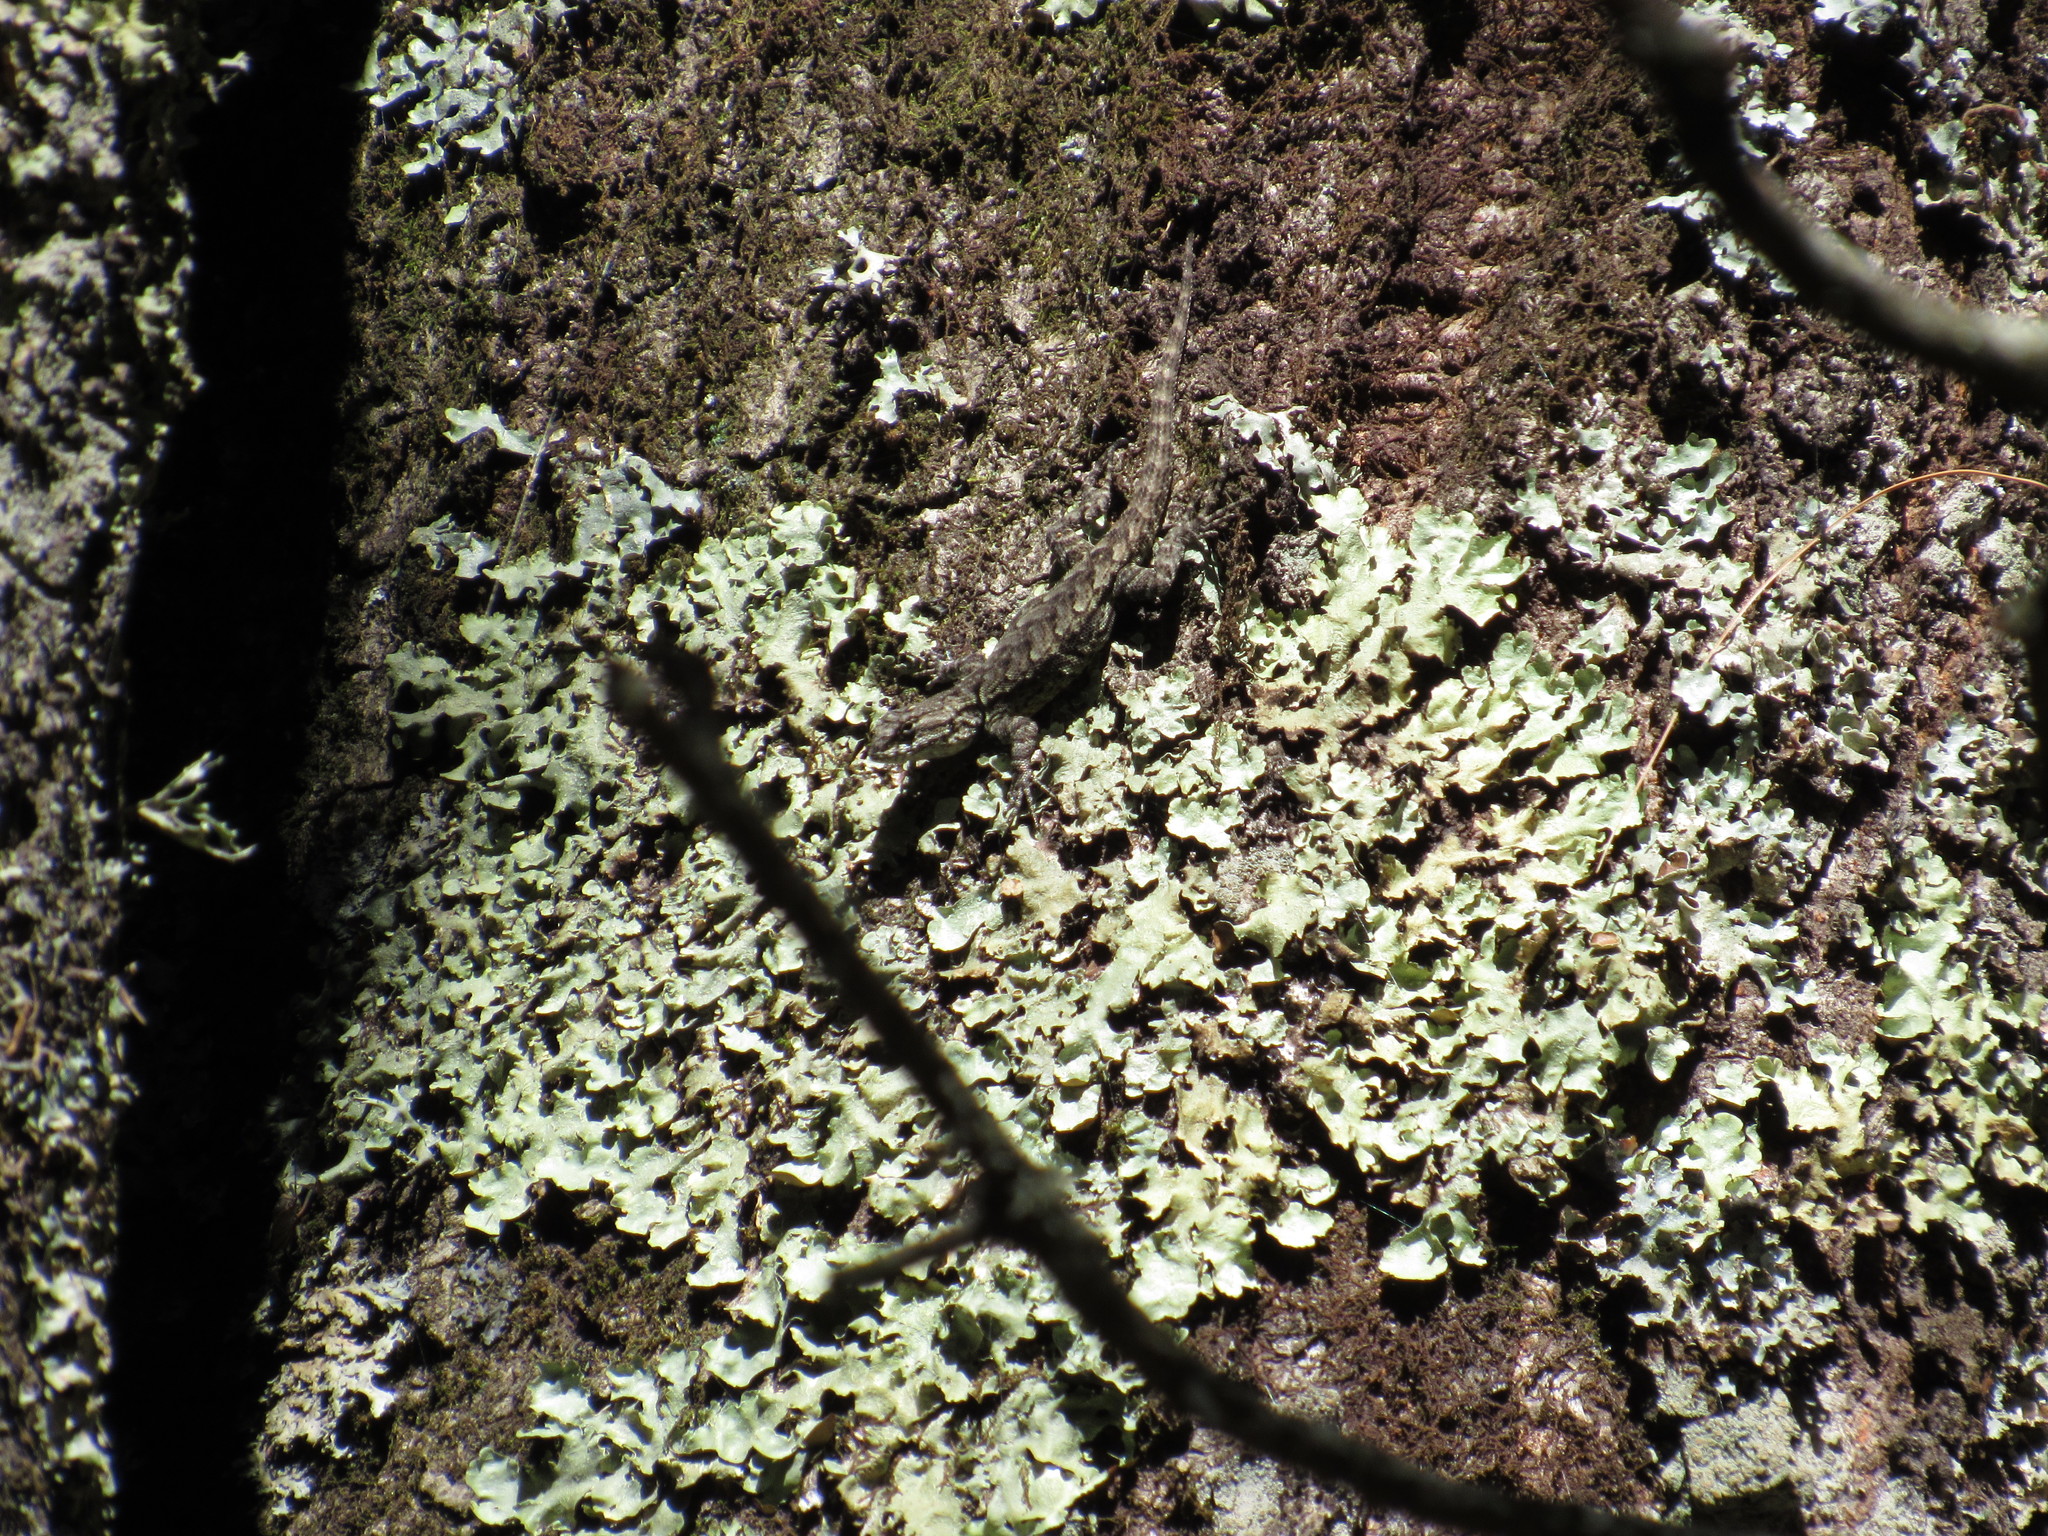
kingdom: Animalia
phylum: Chordata
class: Squamata
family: Phrynosomatidae
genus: Sceloporus
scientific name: Sceloporus grammicus
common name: Mesquite lizard
